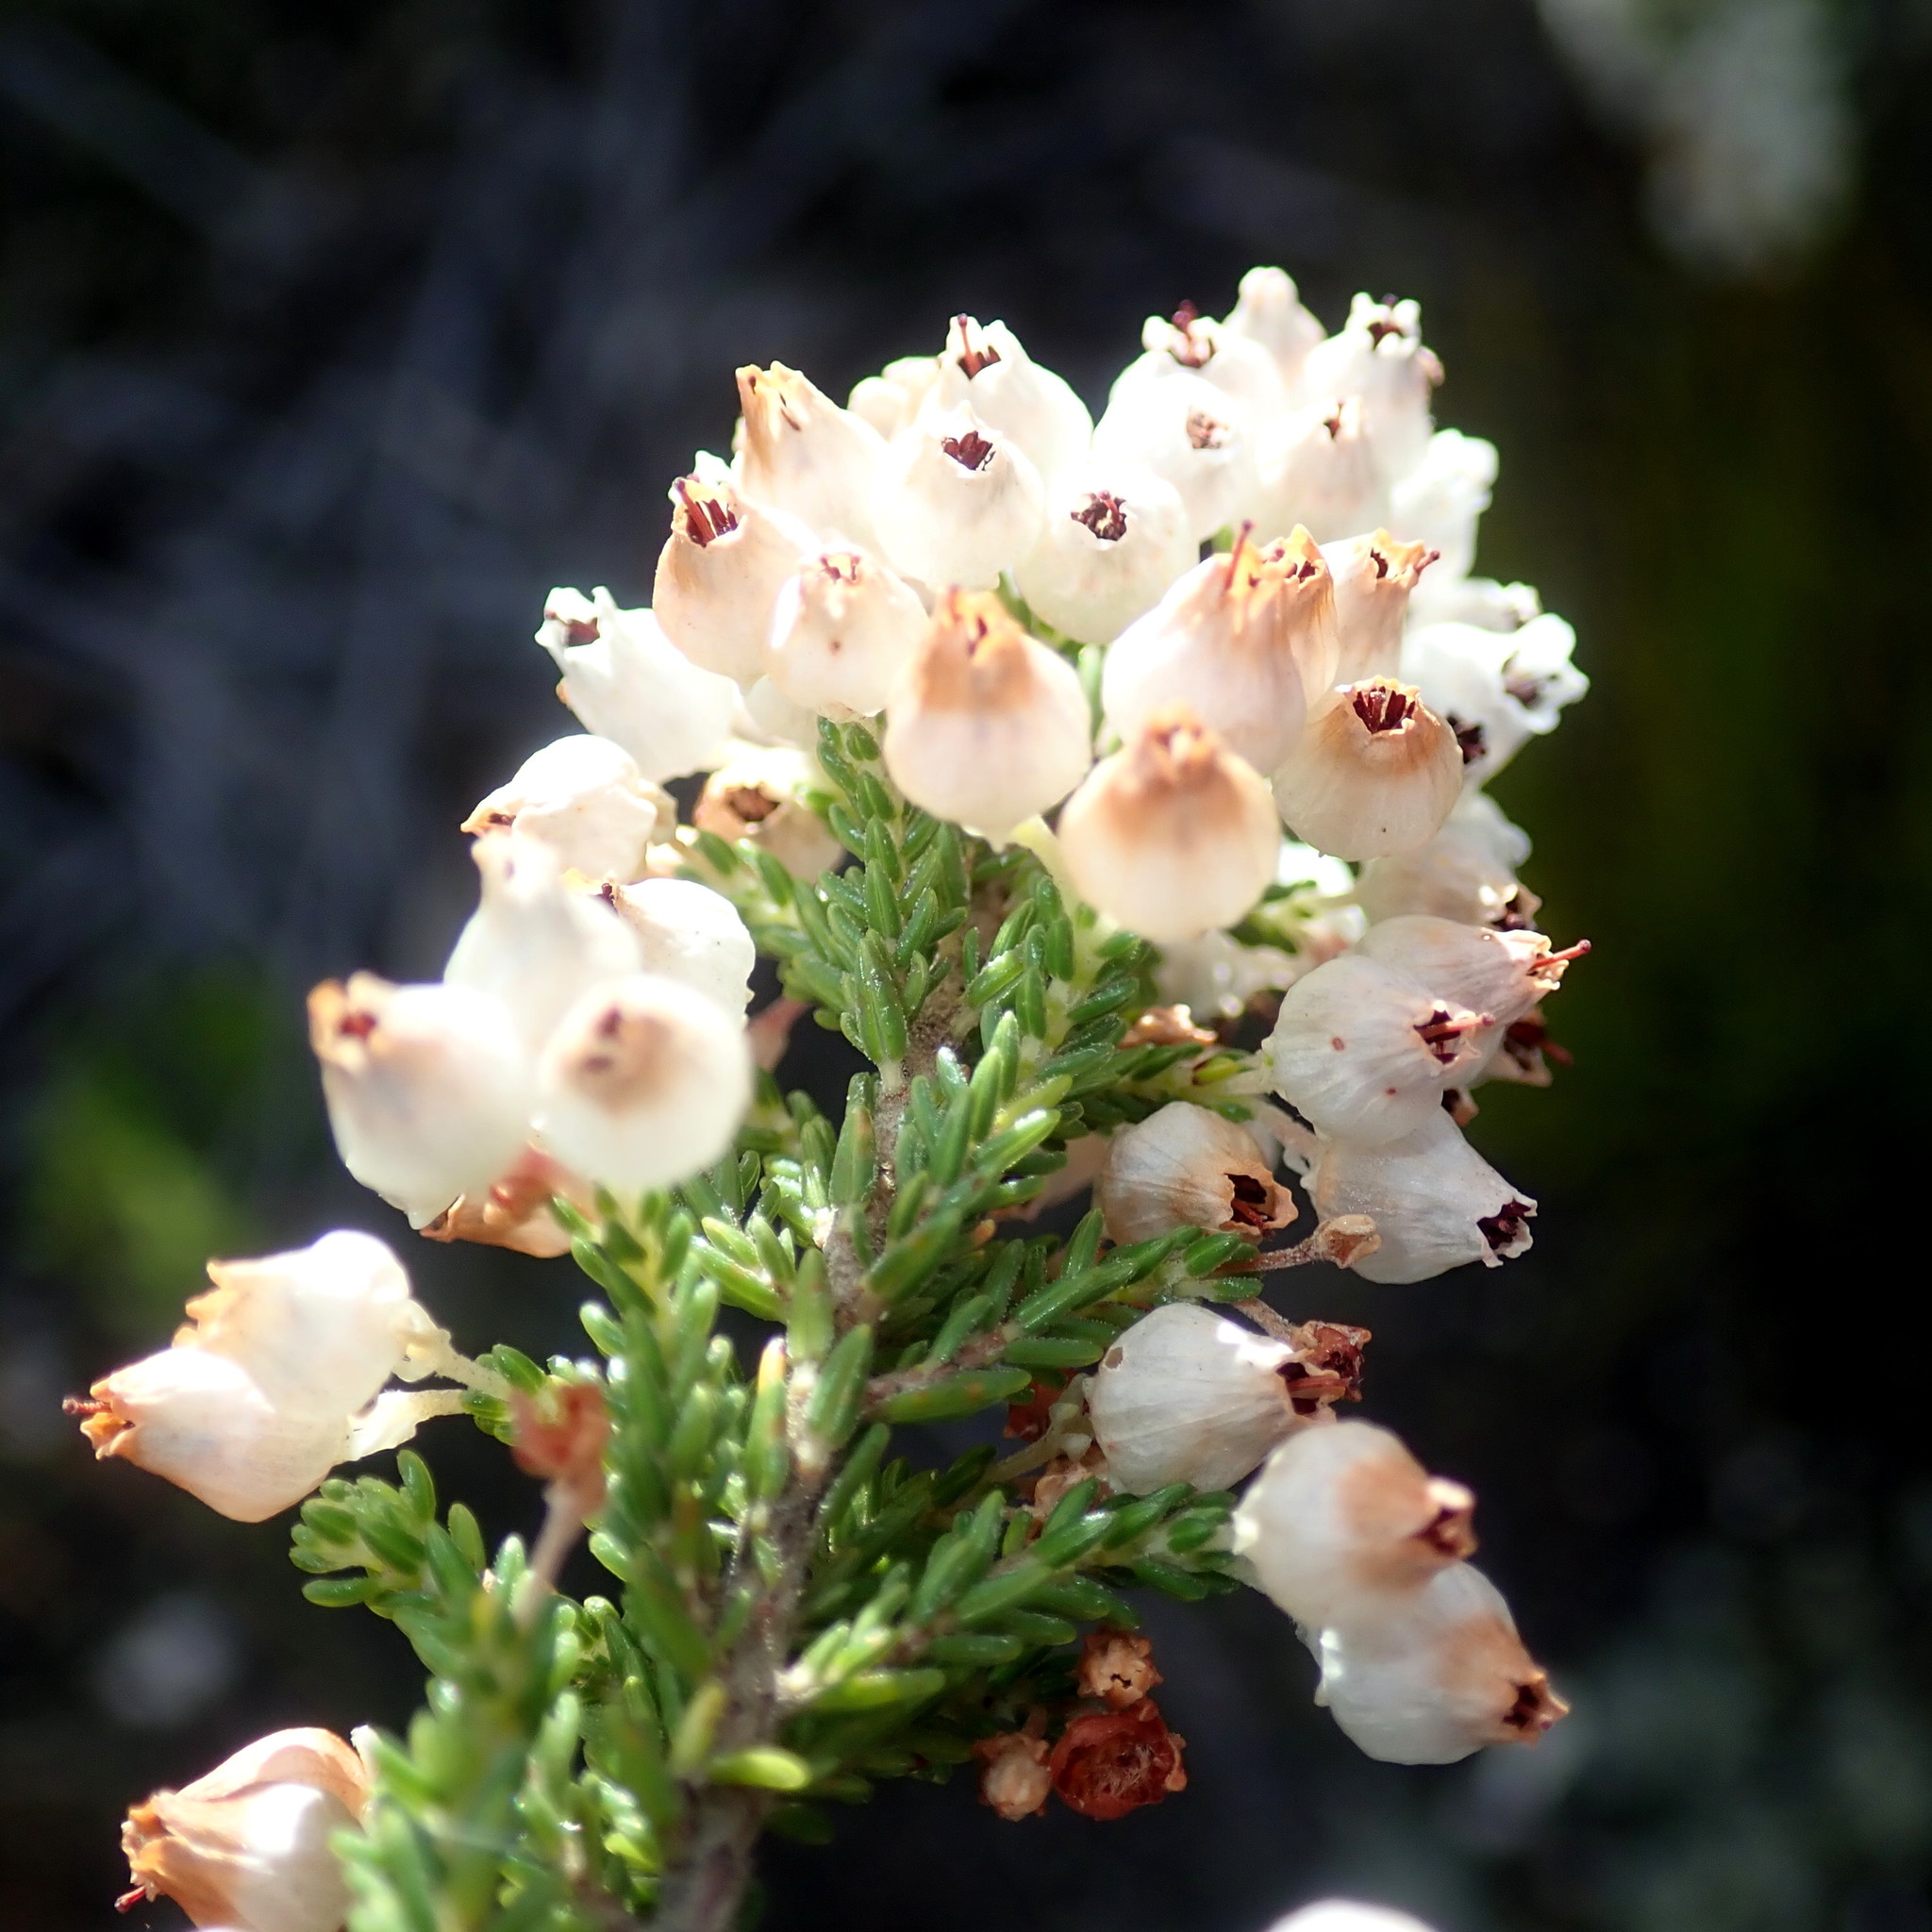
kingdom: Plantae
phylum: Tracheophyta
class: Magnoliopsida
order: Ericales
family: Ericaceae
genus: Erica
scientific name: Erica glomiflora
